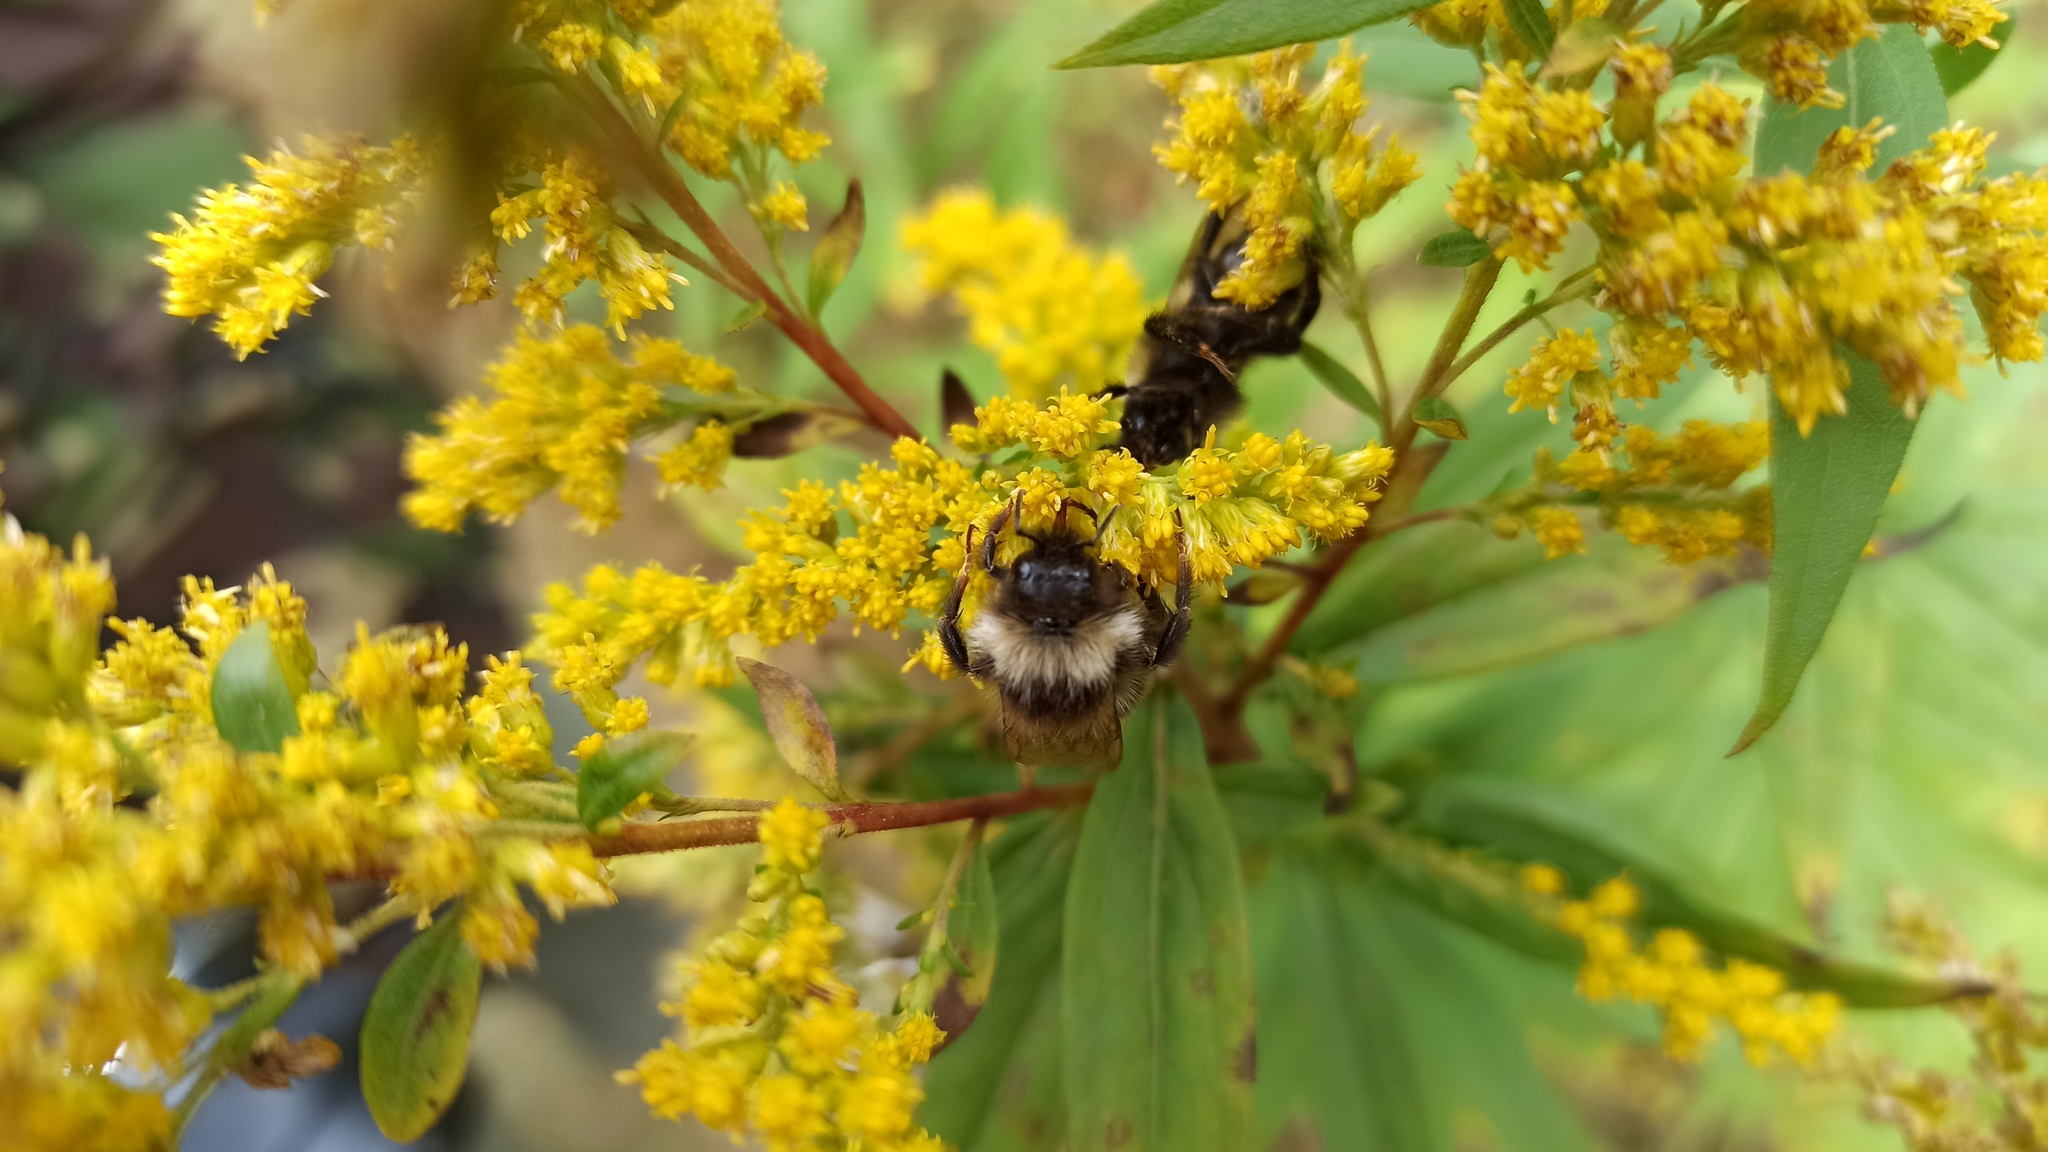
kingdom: Animalia
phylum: Arthropoda
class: Insecta
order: Hymenoptera
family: Apidae
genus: Bombus
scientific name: Bombus
